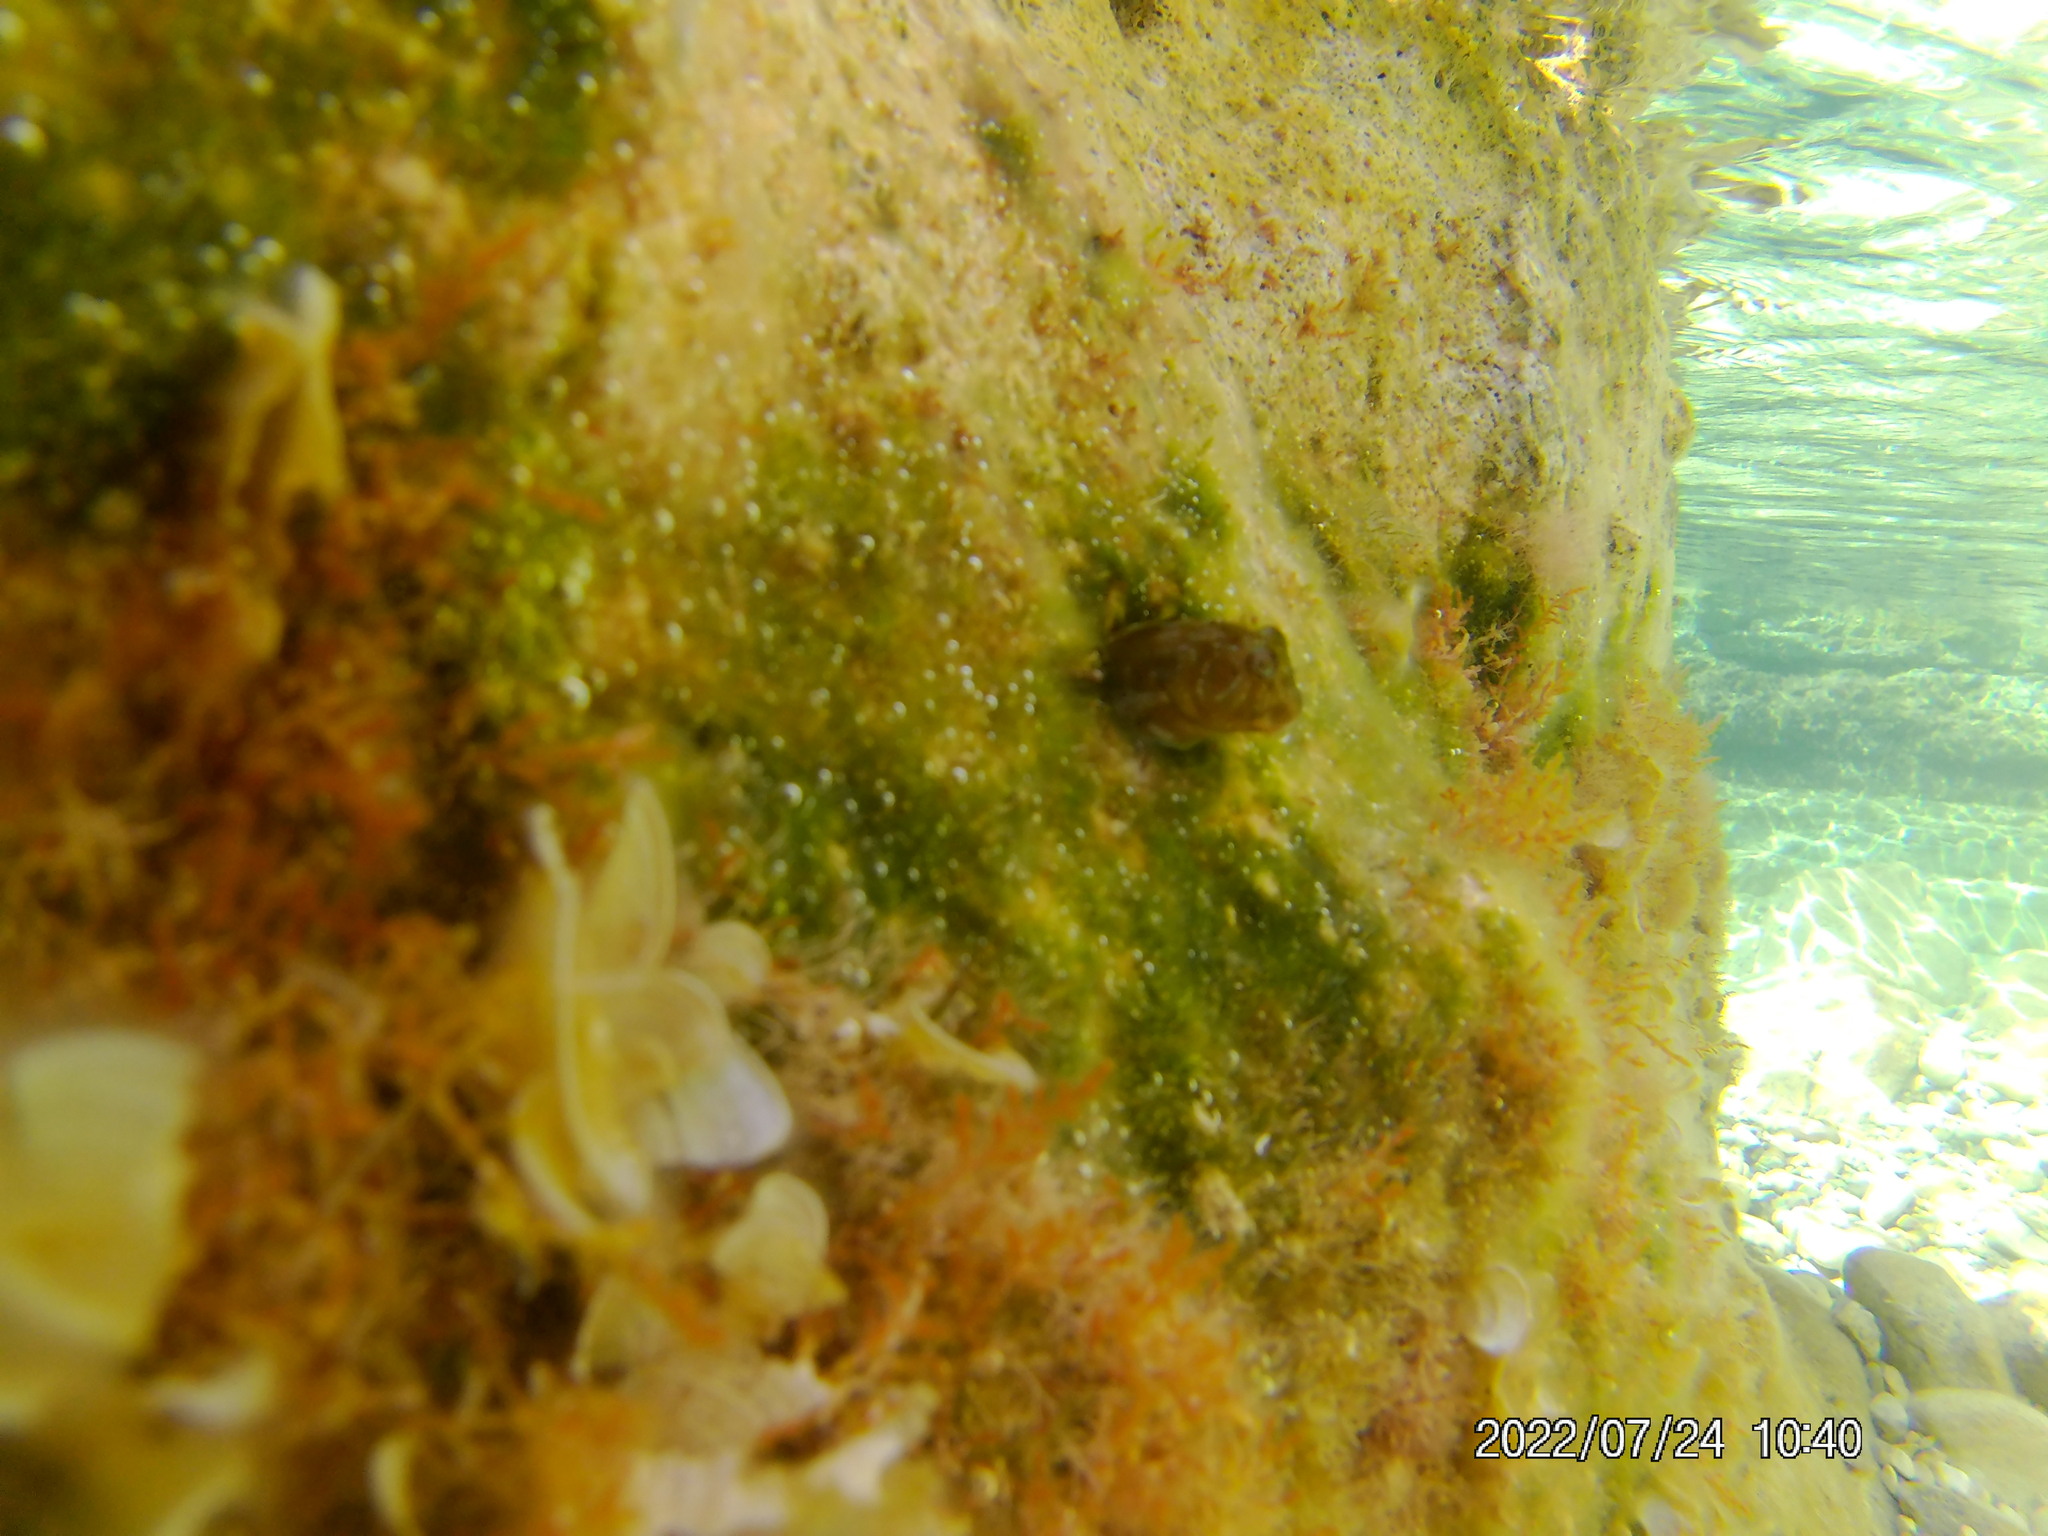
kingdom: Animalia
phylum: Chordata
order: Perciformes
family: Blenniidae
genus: Scartella
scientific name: Scartella cristata
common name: Molly miller
